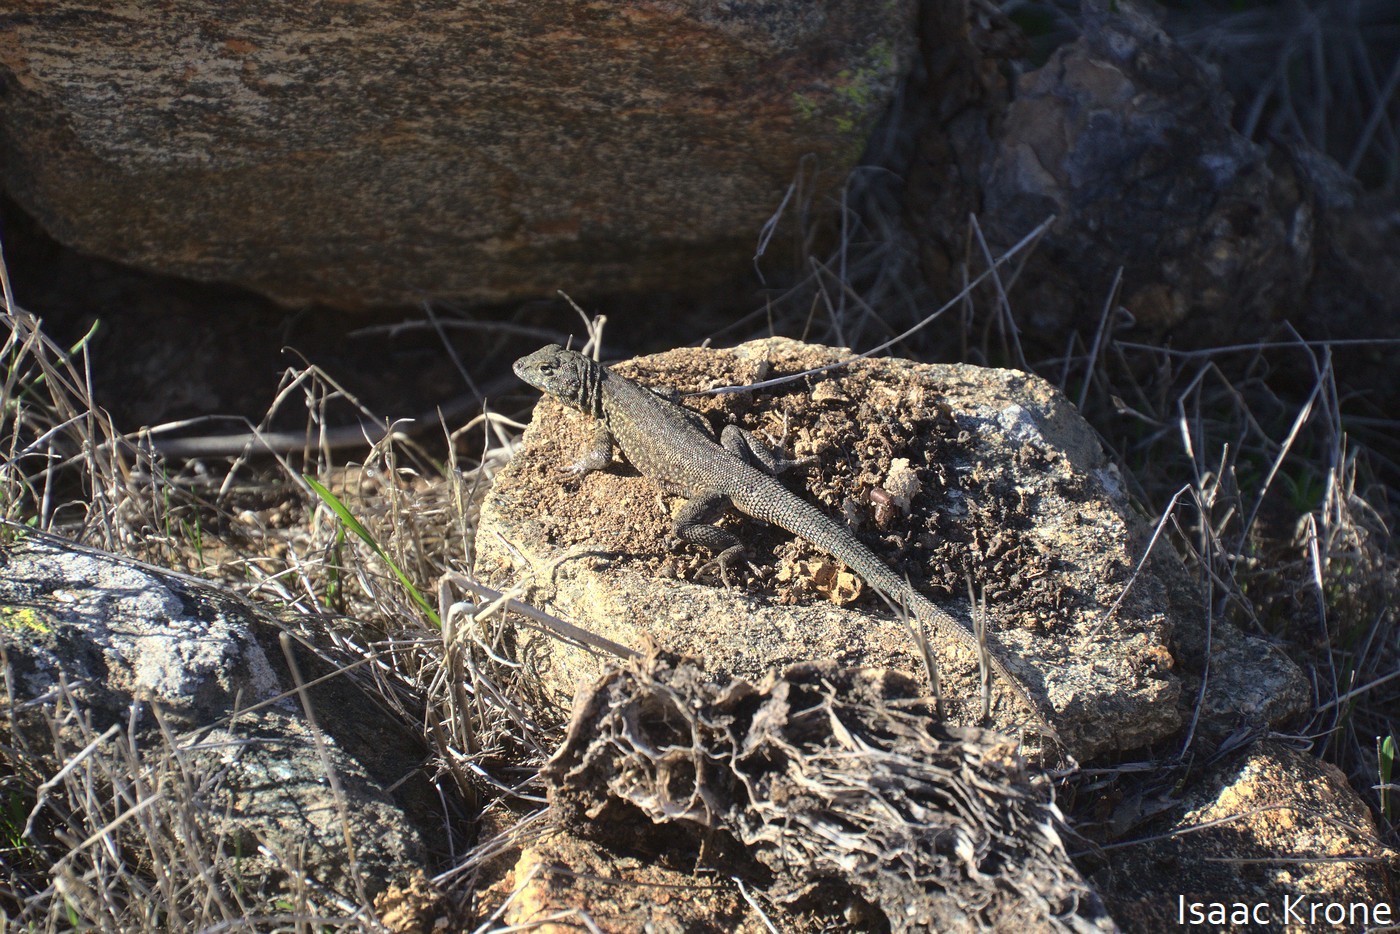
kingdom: Animalia
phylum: Chordata
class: Squamata
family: Phrynosomatidae
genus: Uta
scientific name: Uta stansburiana
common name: Side-blotched lizard
